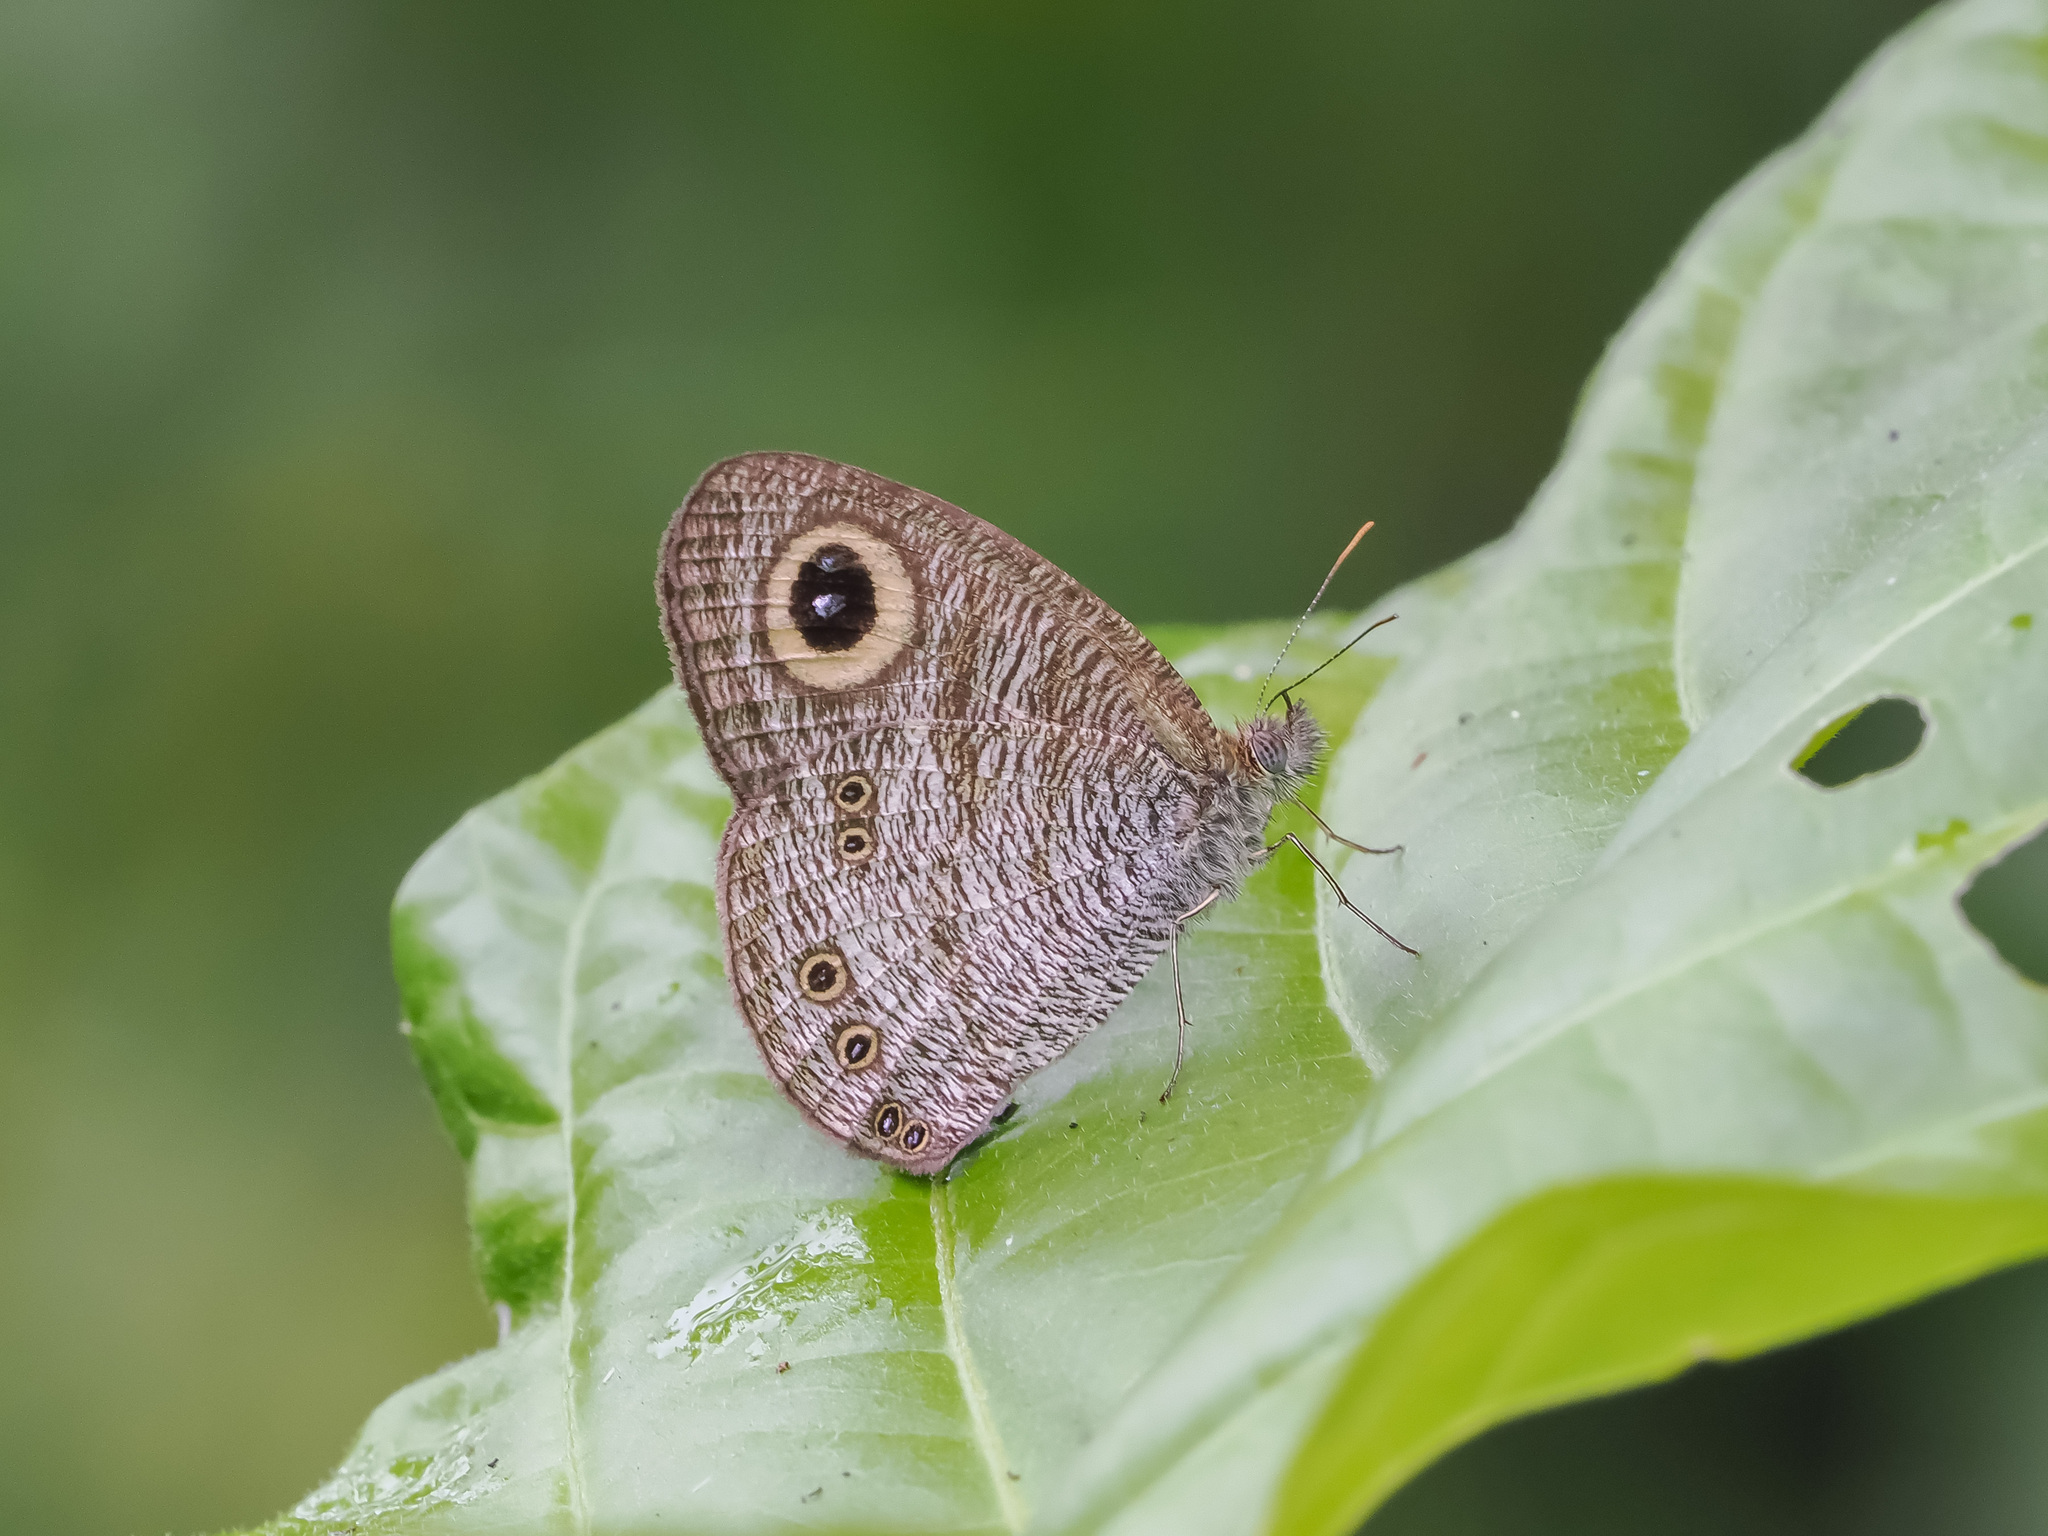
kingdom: Animalia
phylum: Arthropoda
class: Insecta
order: Lepidoptera
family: Nymphalidae
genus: Ypthima
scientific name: Ypthima baldus
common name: Common five-ring
